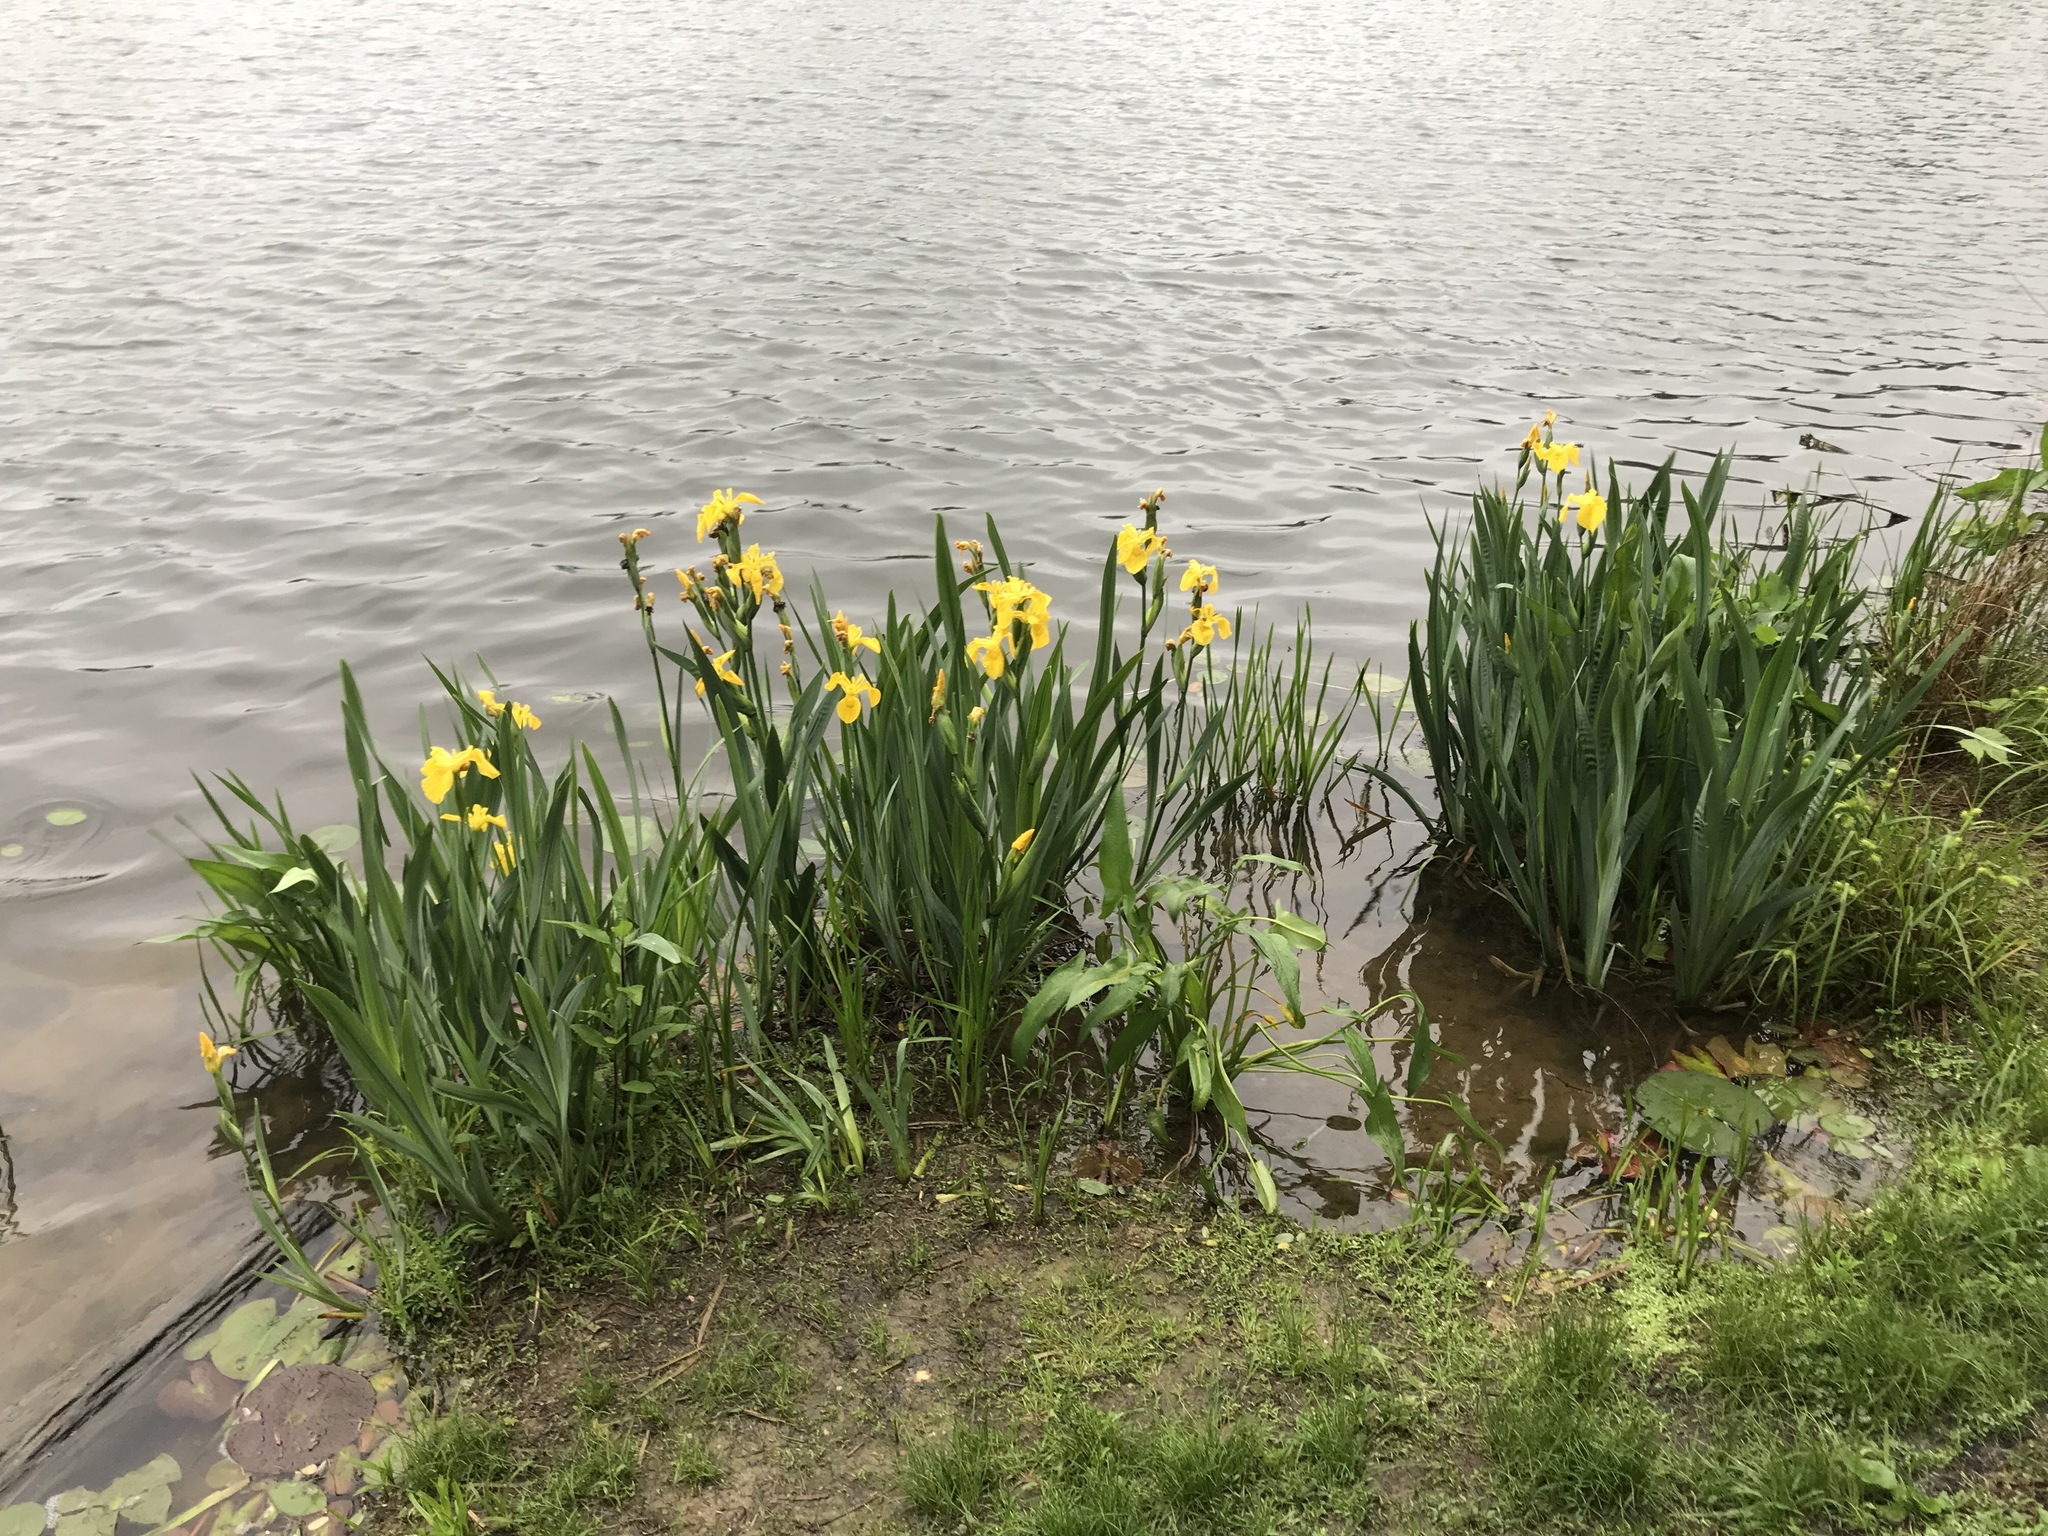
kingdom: Plantae
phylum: Tracheophyta
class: Liliopsida
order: Asparagales
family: Iridaceae
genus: Iris
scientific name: Iris pseudacorus
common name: Yellow flag
